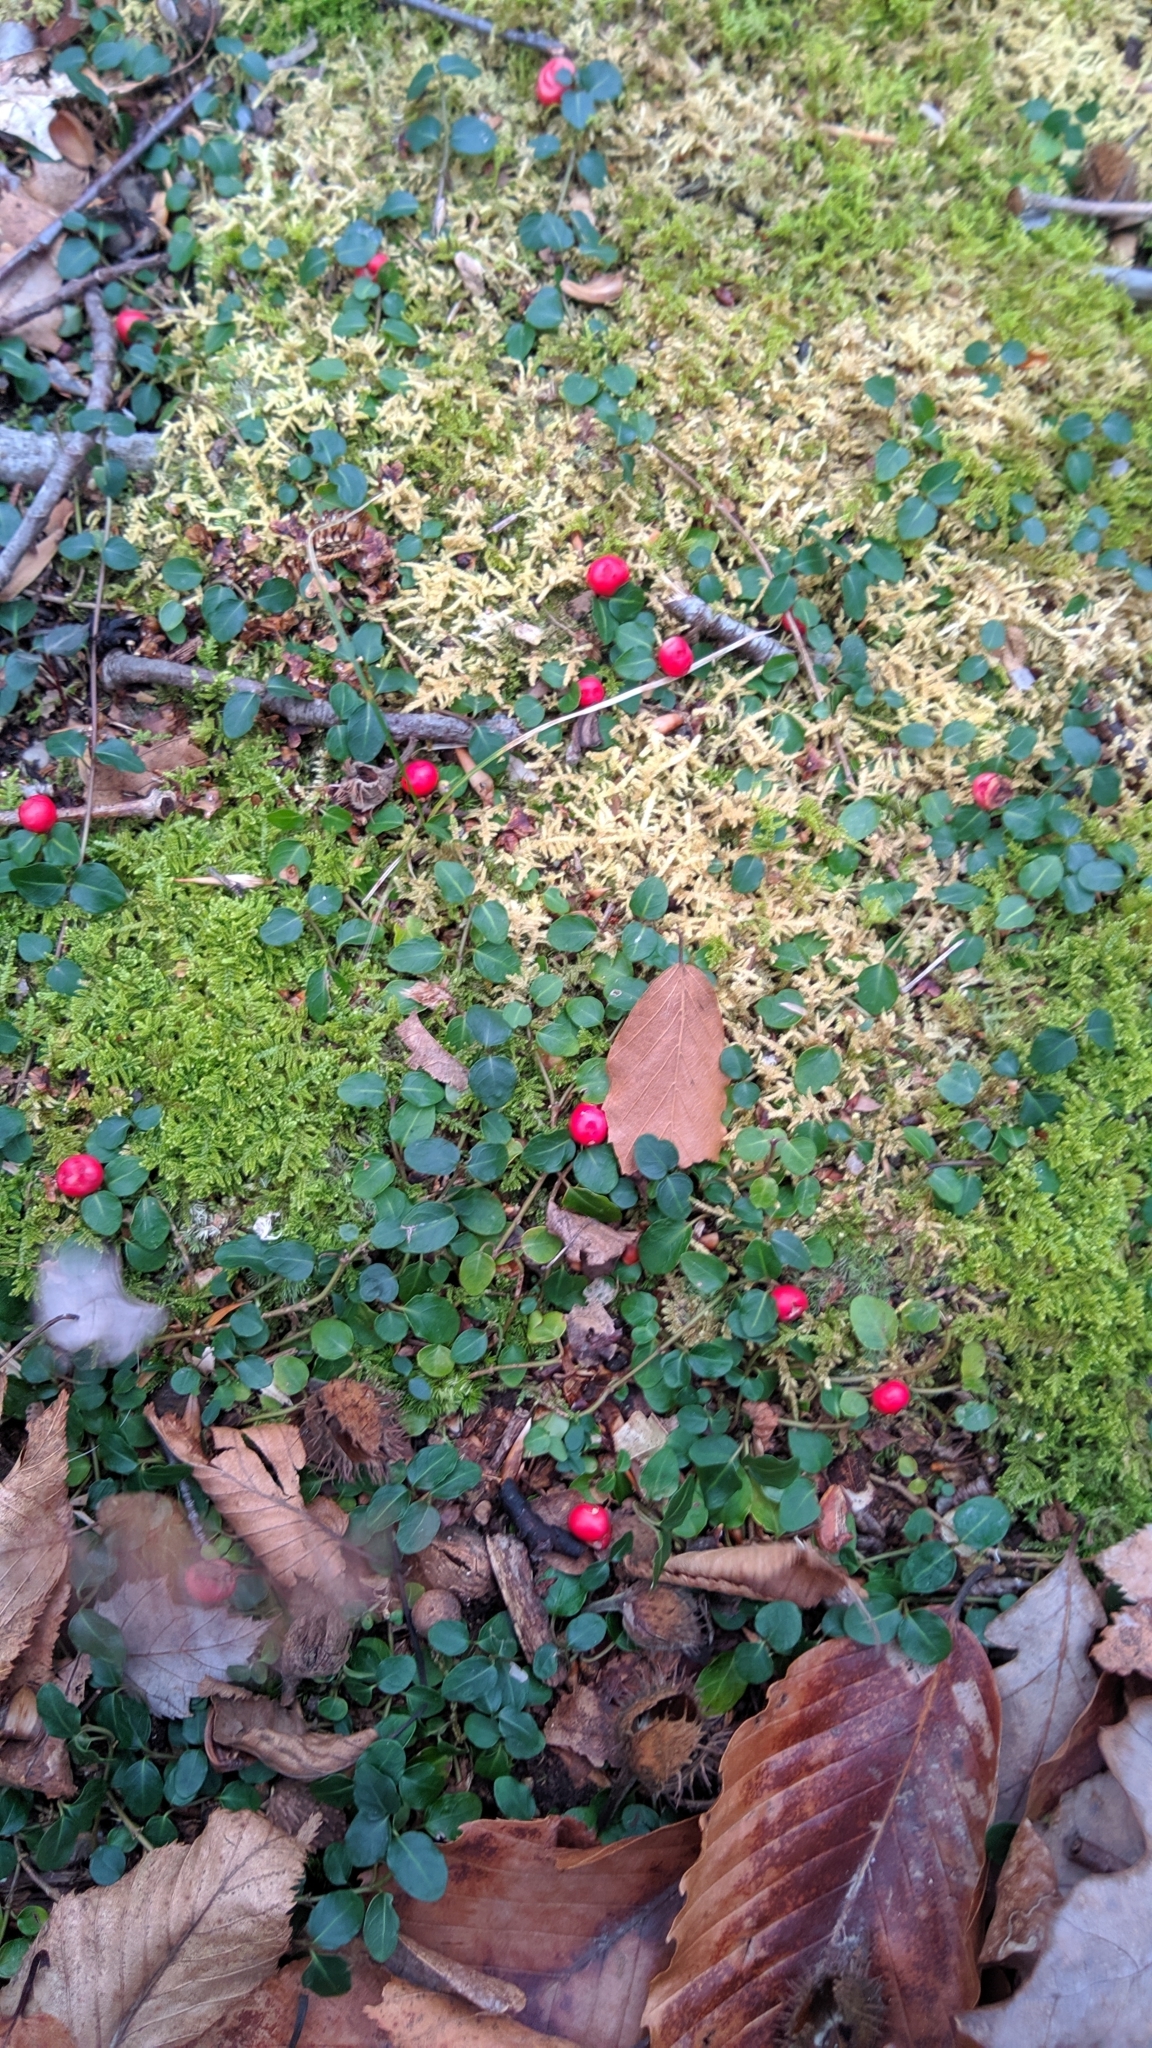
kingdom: Plantae
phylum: Tracheophyta
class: Magnoliopsida
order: Gentianales
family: Rubiaceae
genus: Mitchella
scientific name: Mitchella repens
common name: Partridge-berry
